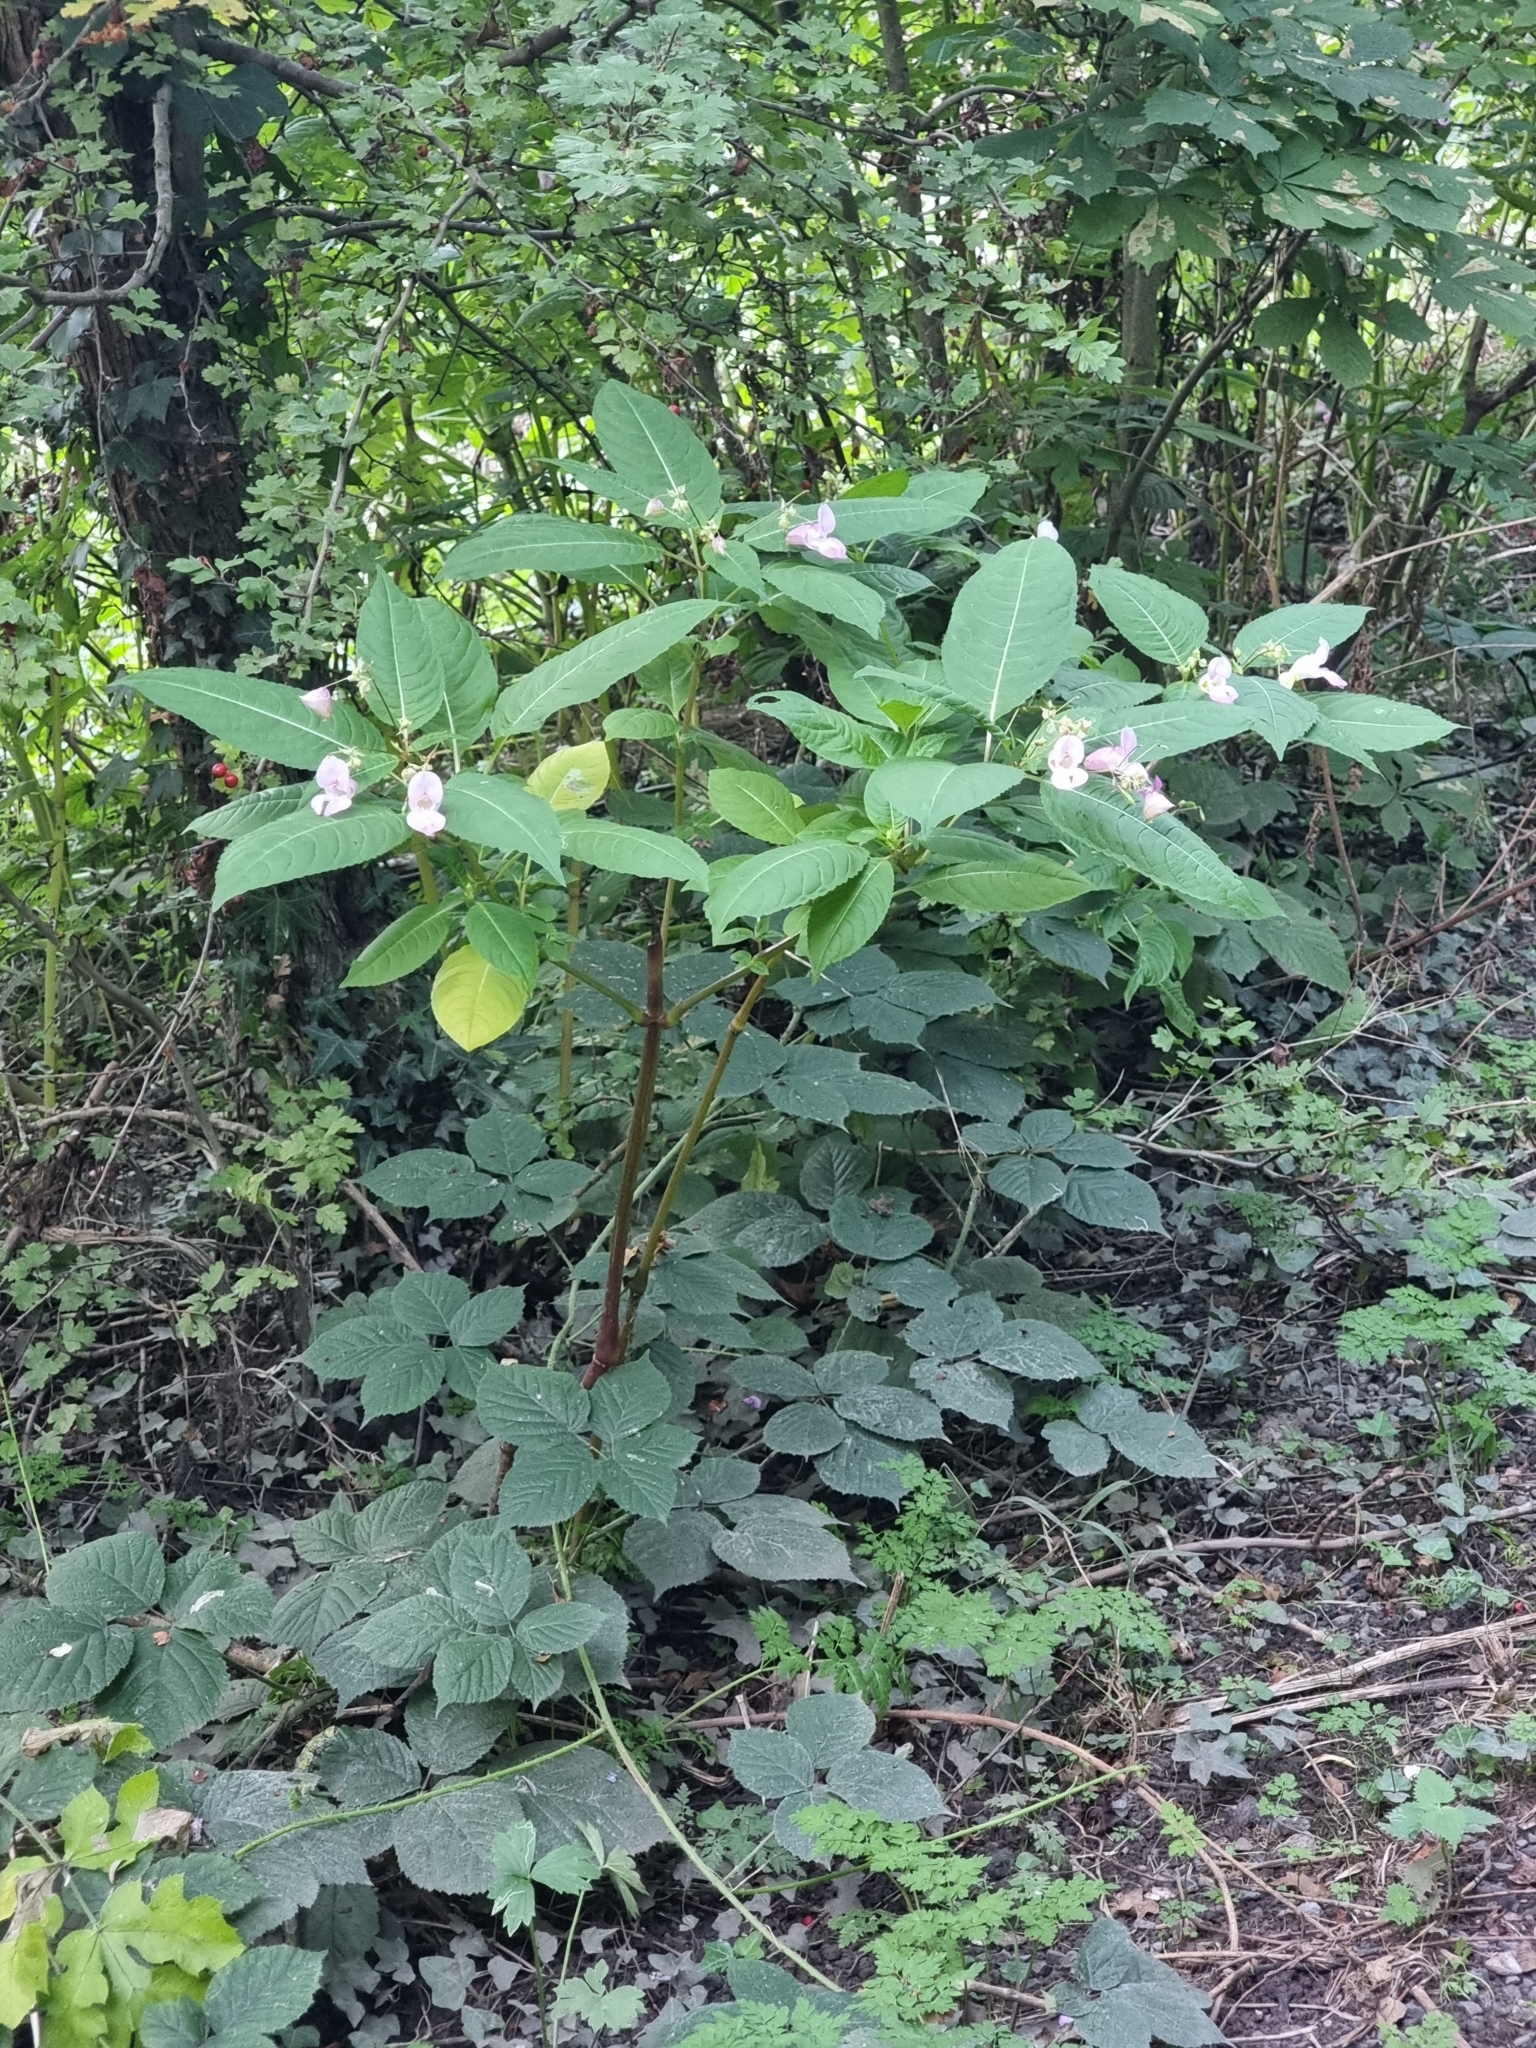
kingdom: Plantae
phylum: Tracheophyta
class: Magnoliopsida
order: Ericales
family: Balsaminaceae
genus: Impatiens
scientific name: Impatiens glandulifera
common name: Himalayan balsam
